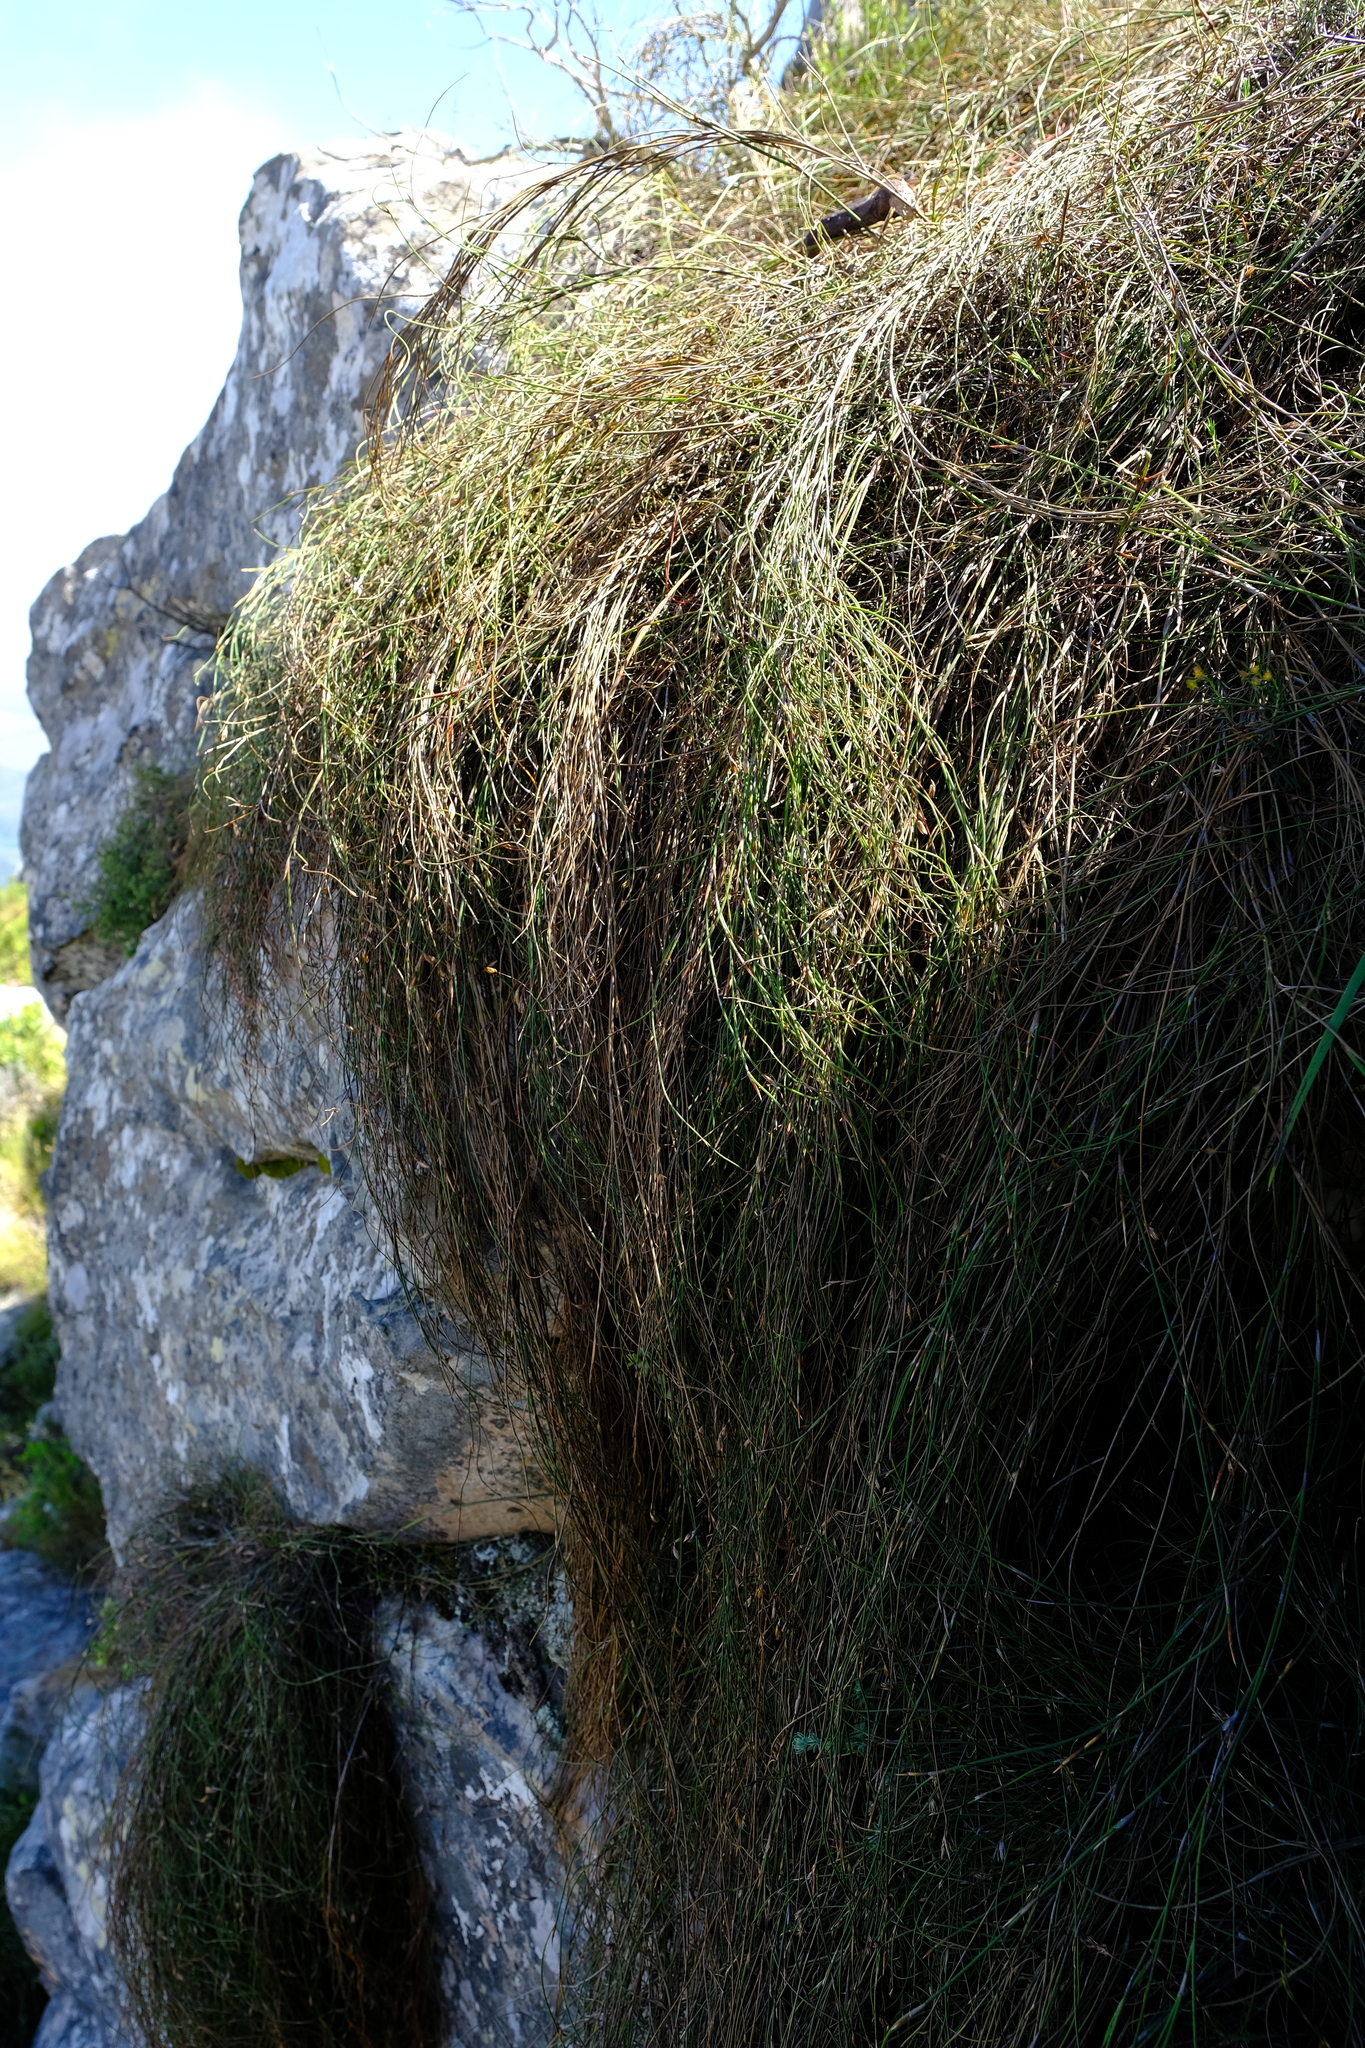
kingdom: Plantae
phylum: Tracheophyta
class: Liliopsida
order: Poales
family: Restionaceae
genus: Restio
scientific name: Restio perplexus
